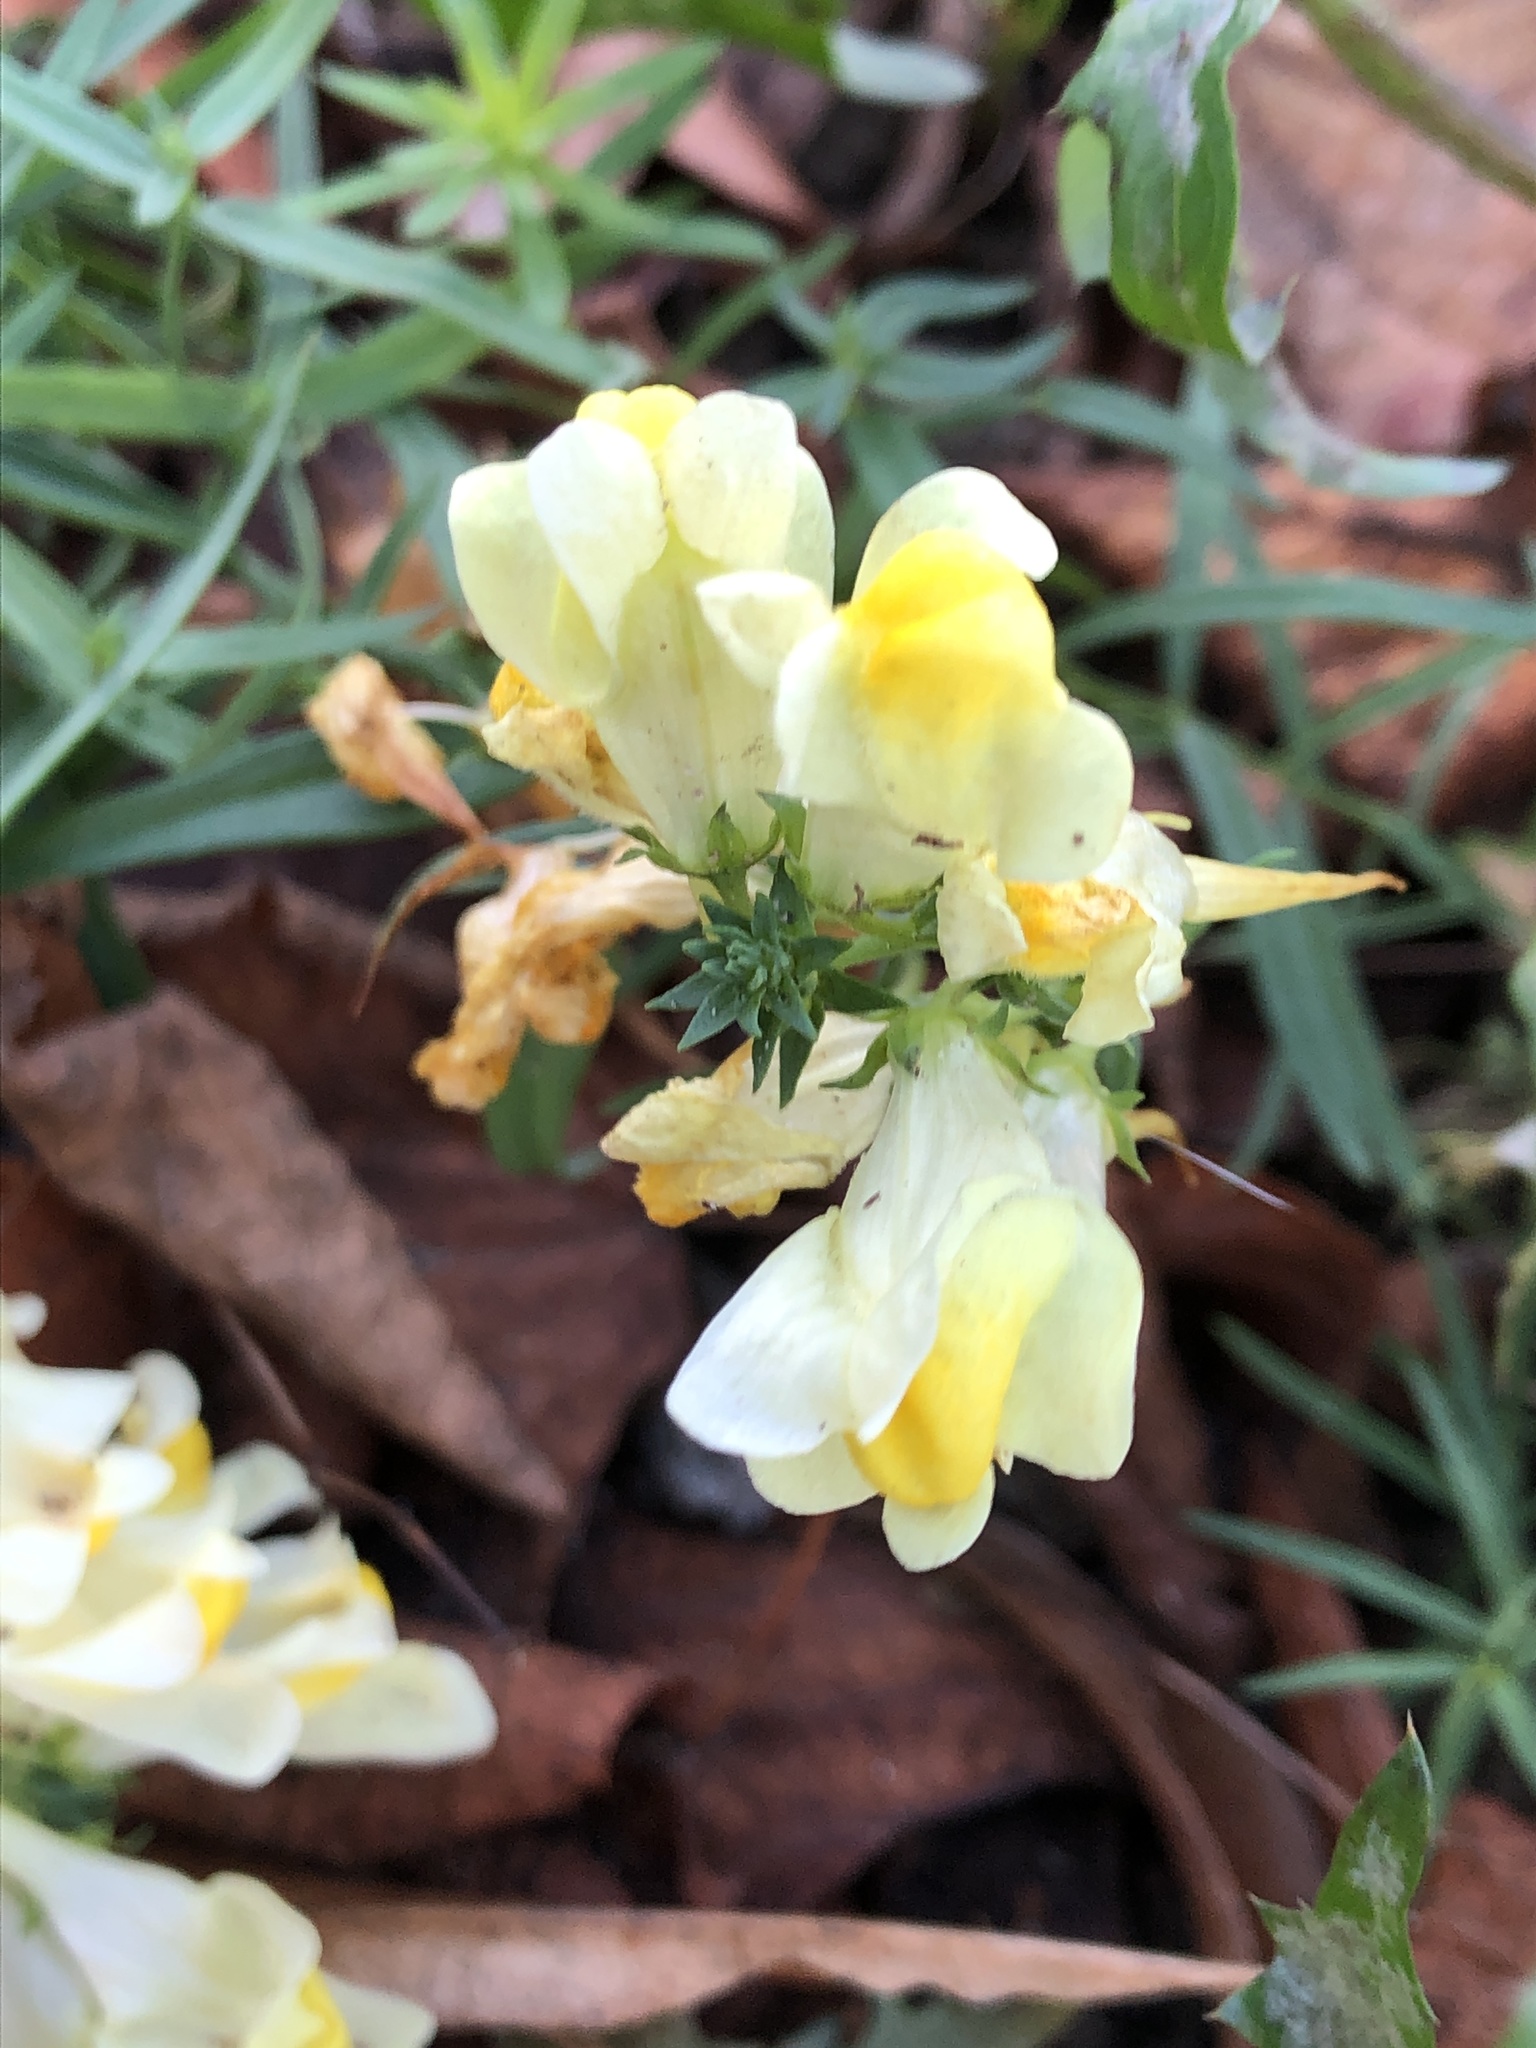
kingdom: Plantae
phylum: Tracheophyta
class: Magnoliopsida
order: Lamiales
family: Plantaginaceae
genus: Linaria
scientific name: Linaria vulgaris
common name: Butter and eggs
